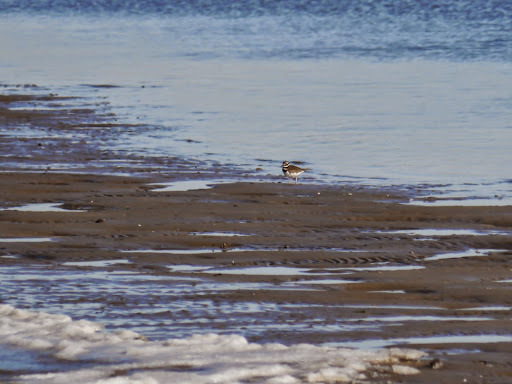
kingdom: Animalia
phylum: Chordata
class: Aves
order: Charadriiformes
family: Charadriidae
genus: Charadrius
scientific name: Charadrius vociferus
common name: Killdeer
